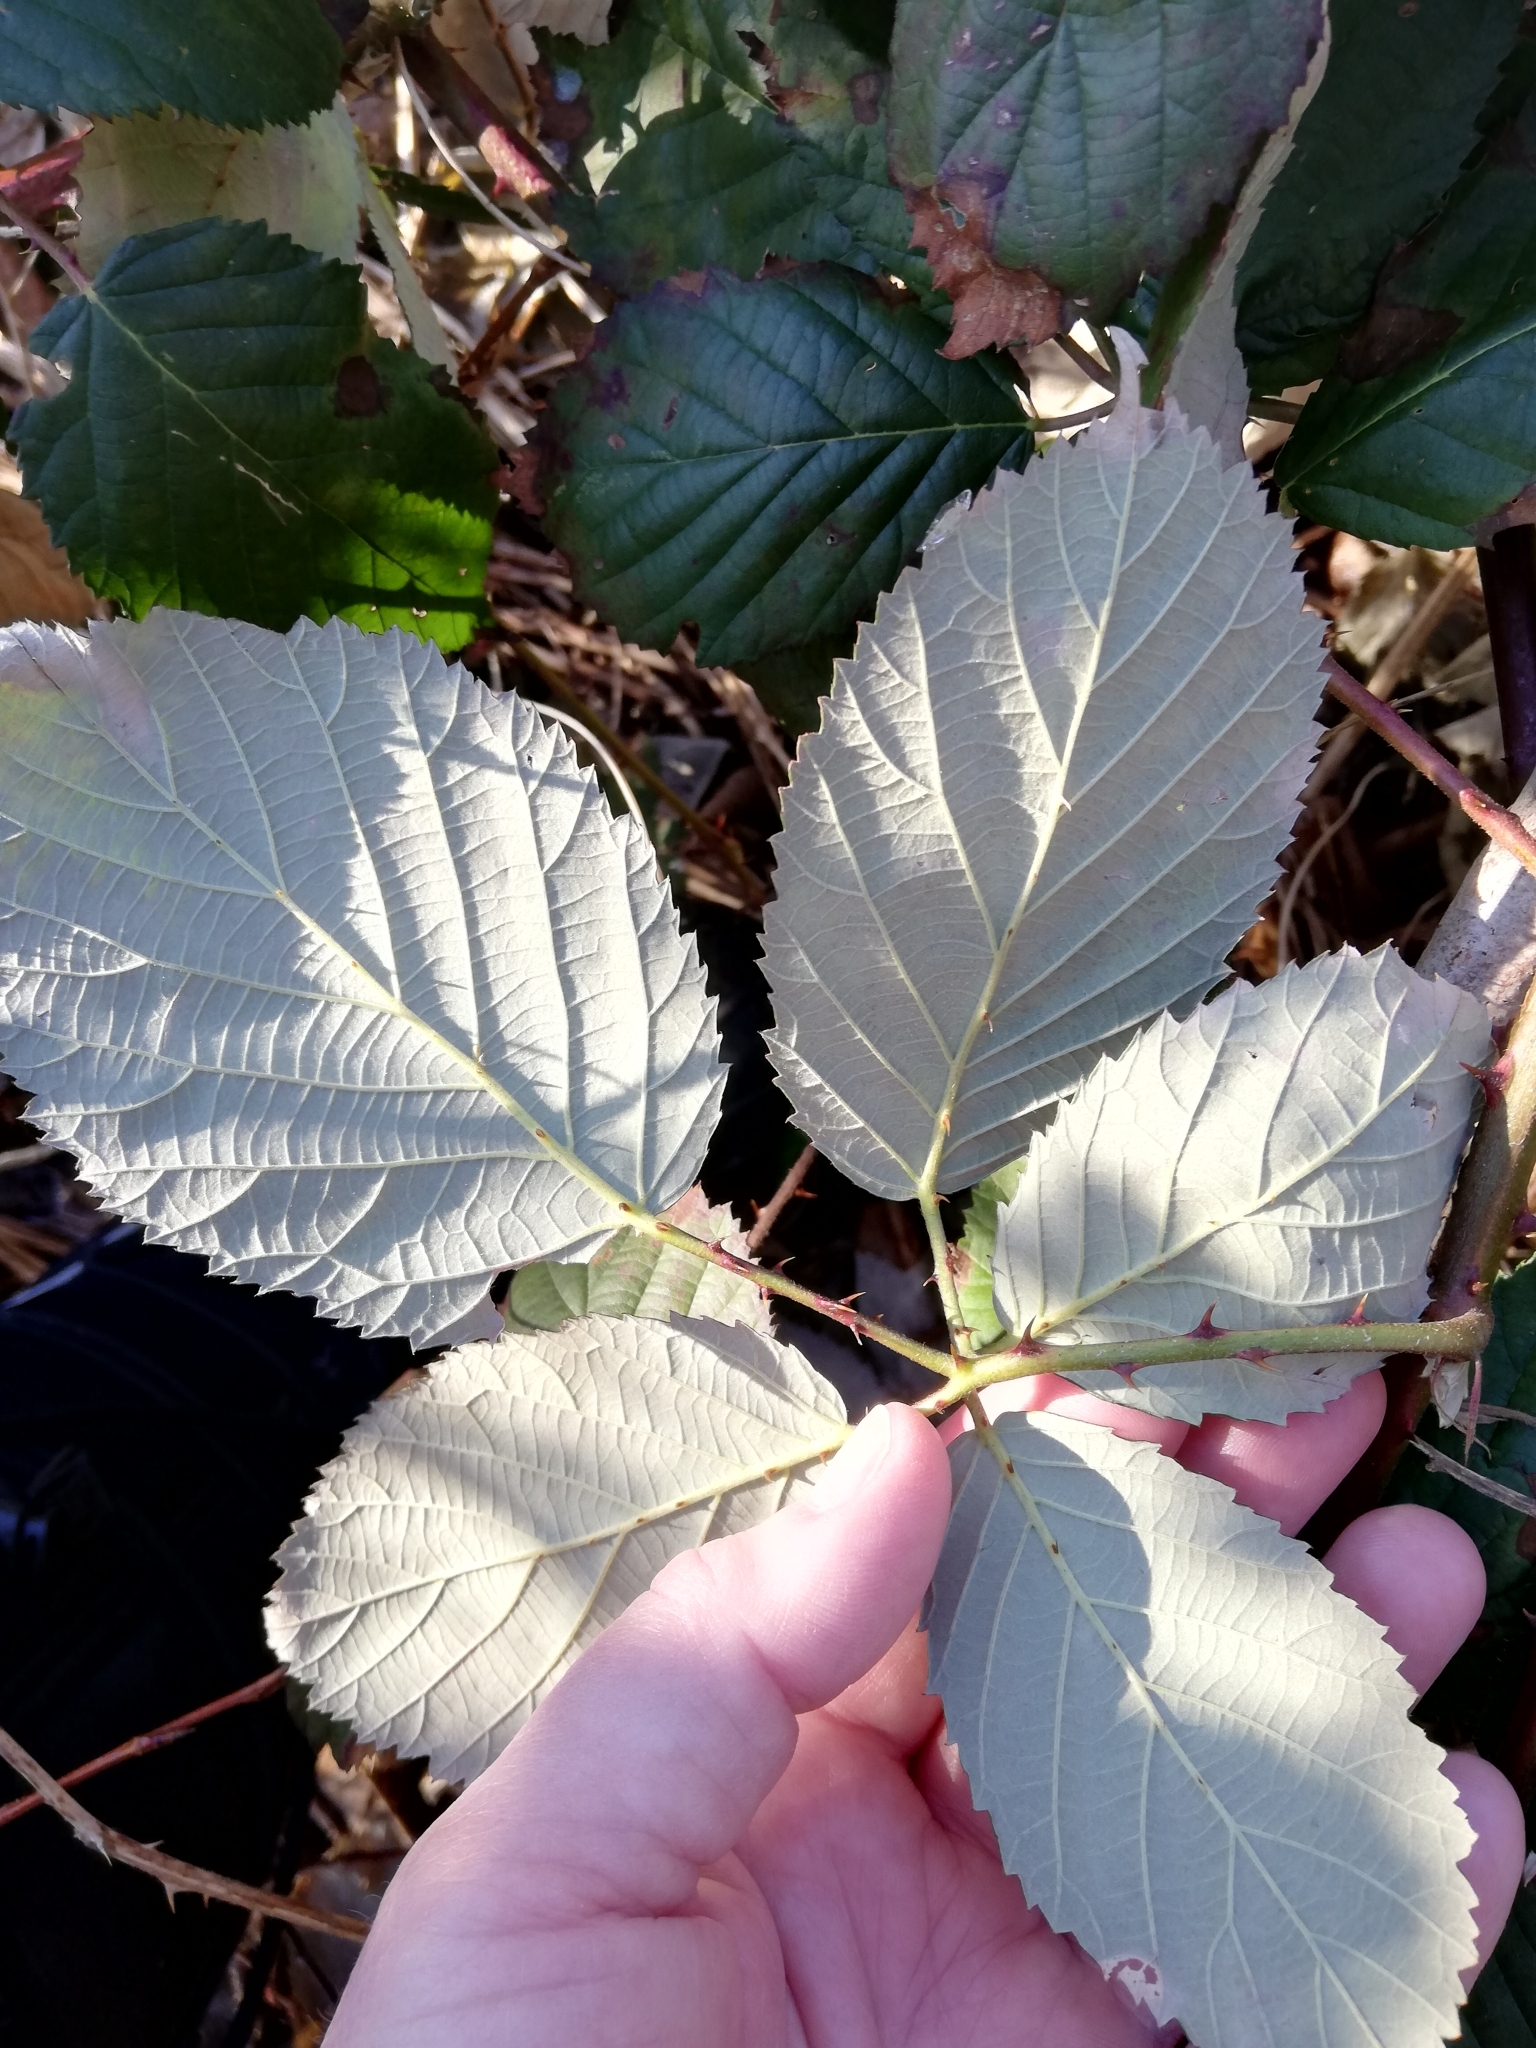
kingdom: Plantae
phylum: Tracheophyta
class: Magnoliopsida
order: Rosales
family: Rosaceae
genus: Rubus
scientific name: Rubus bifrons
